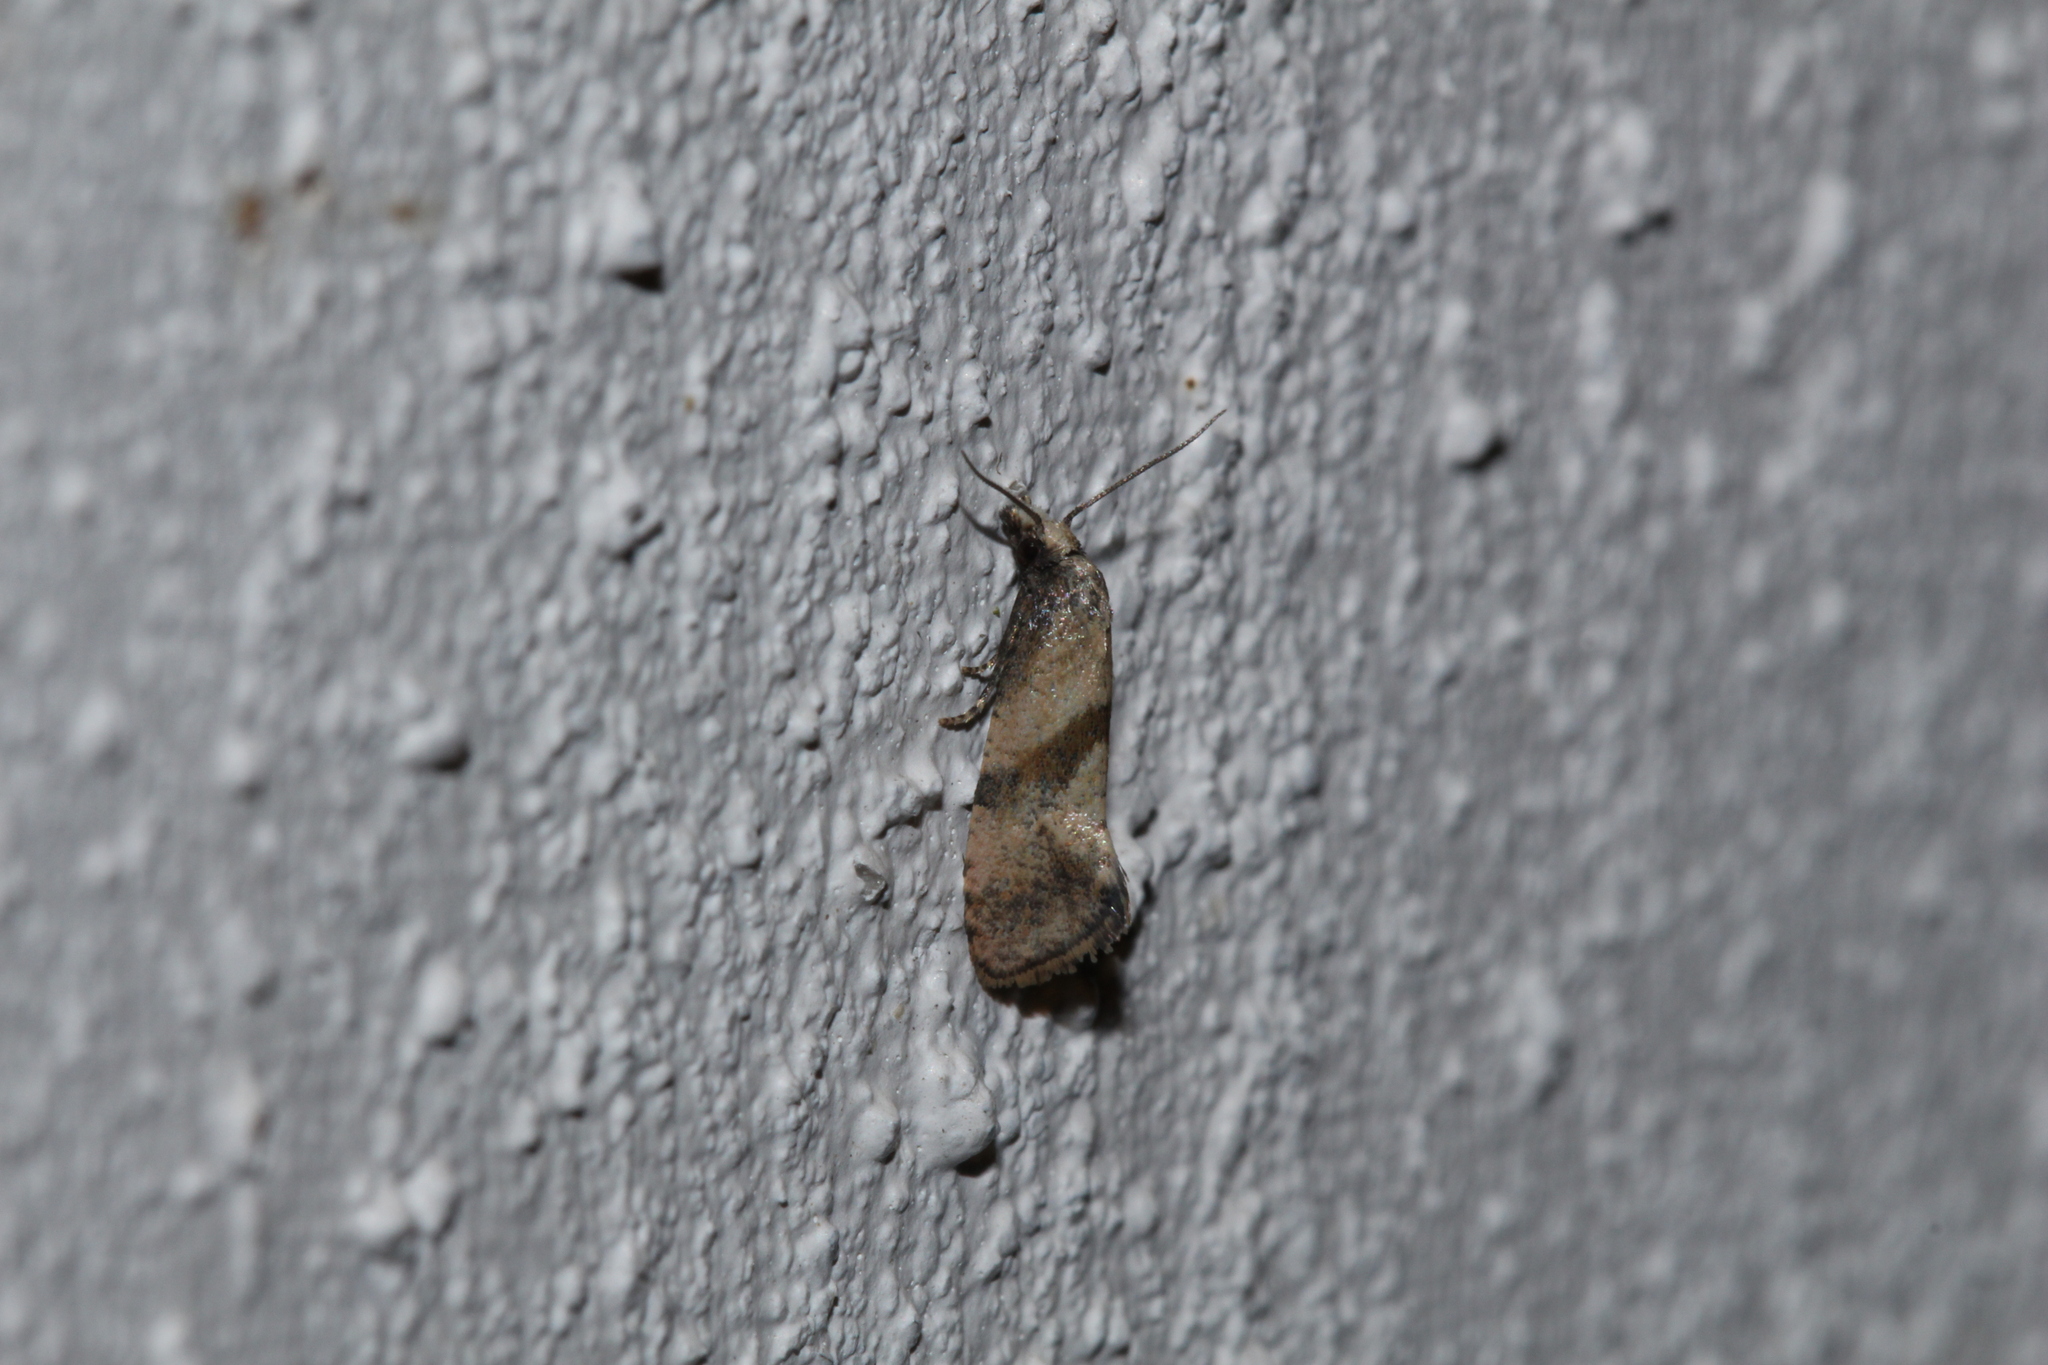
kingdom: Animalia
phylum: Arthropoda
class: Insecta
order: Lepidoptera
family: Tortricidae
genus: Cochylidia
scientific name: Cochylidia implicitana
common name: Chamomile conch
